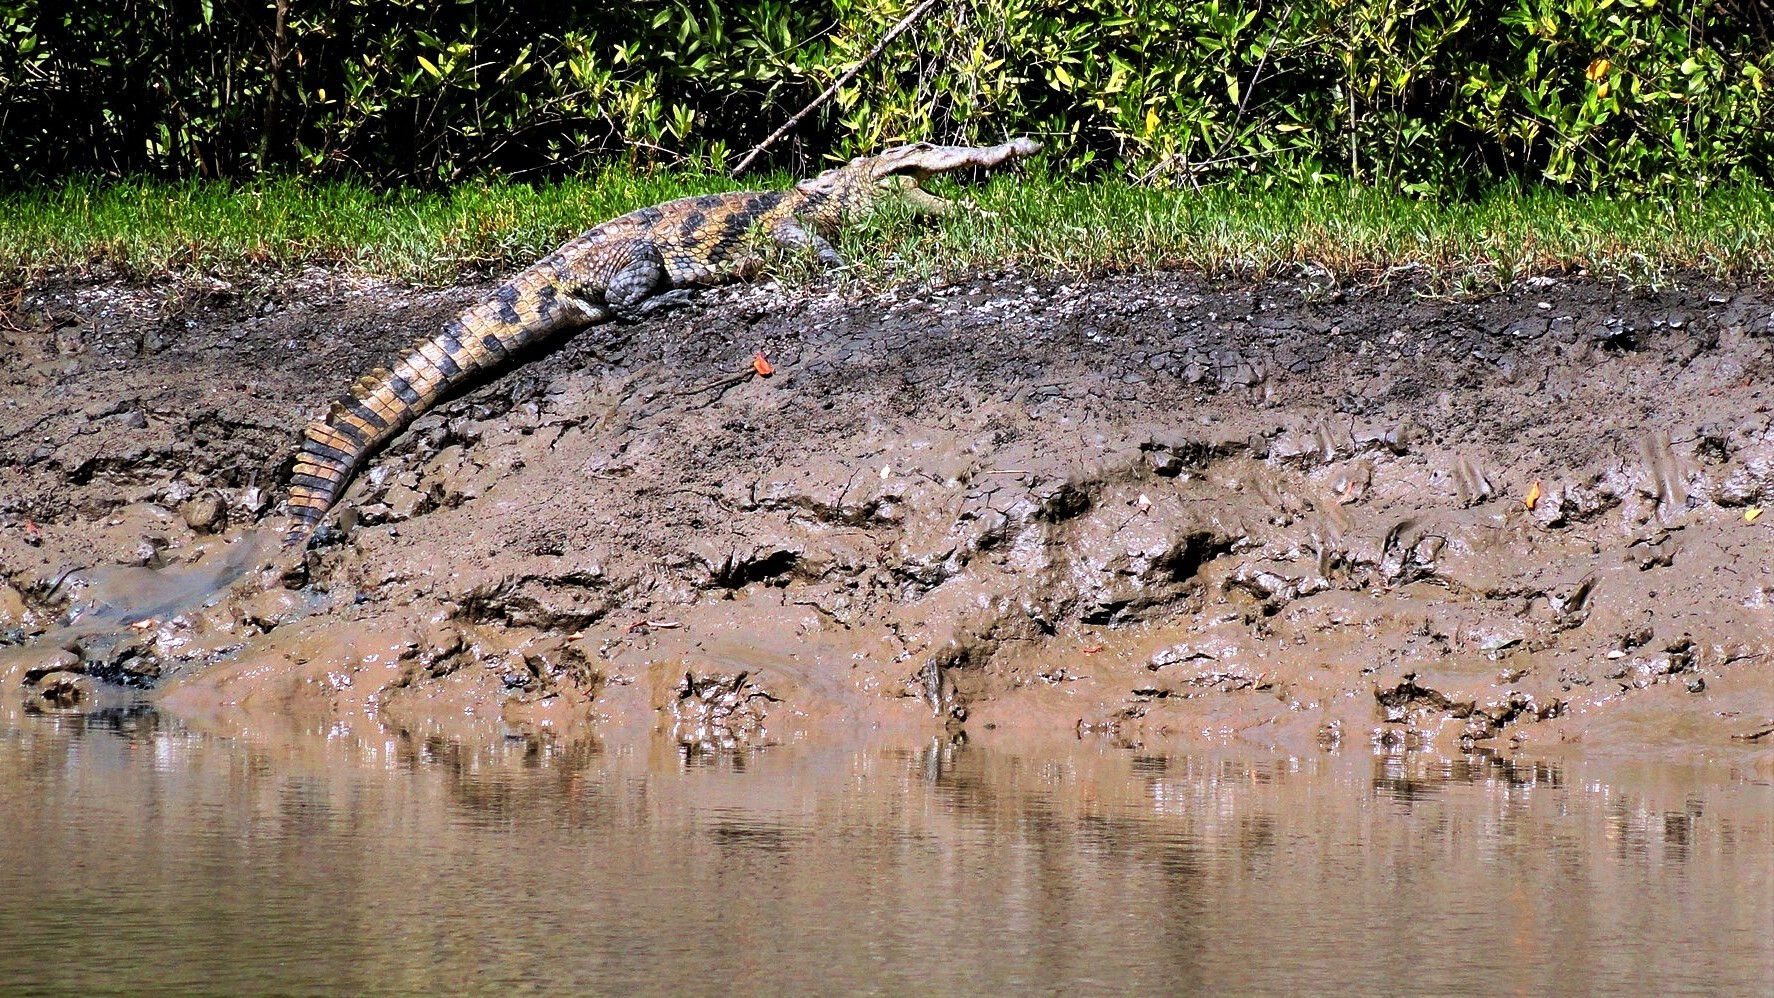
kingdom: Animalia
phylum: Chordata
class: Crocodylia
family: Crocodylidae
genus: Crocodylus
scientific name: Crocodylus suchus
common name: West african crocodile
